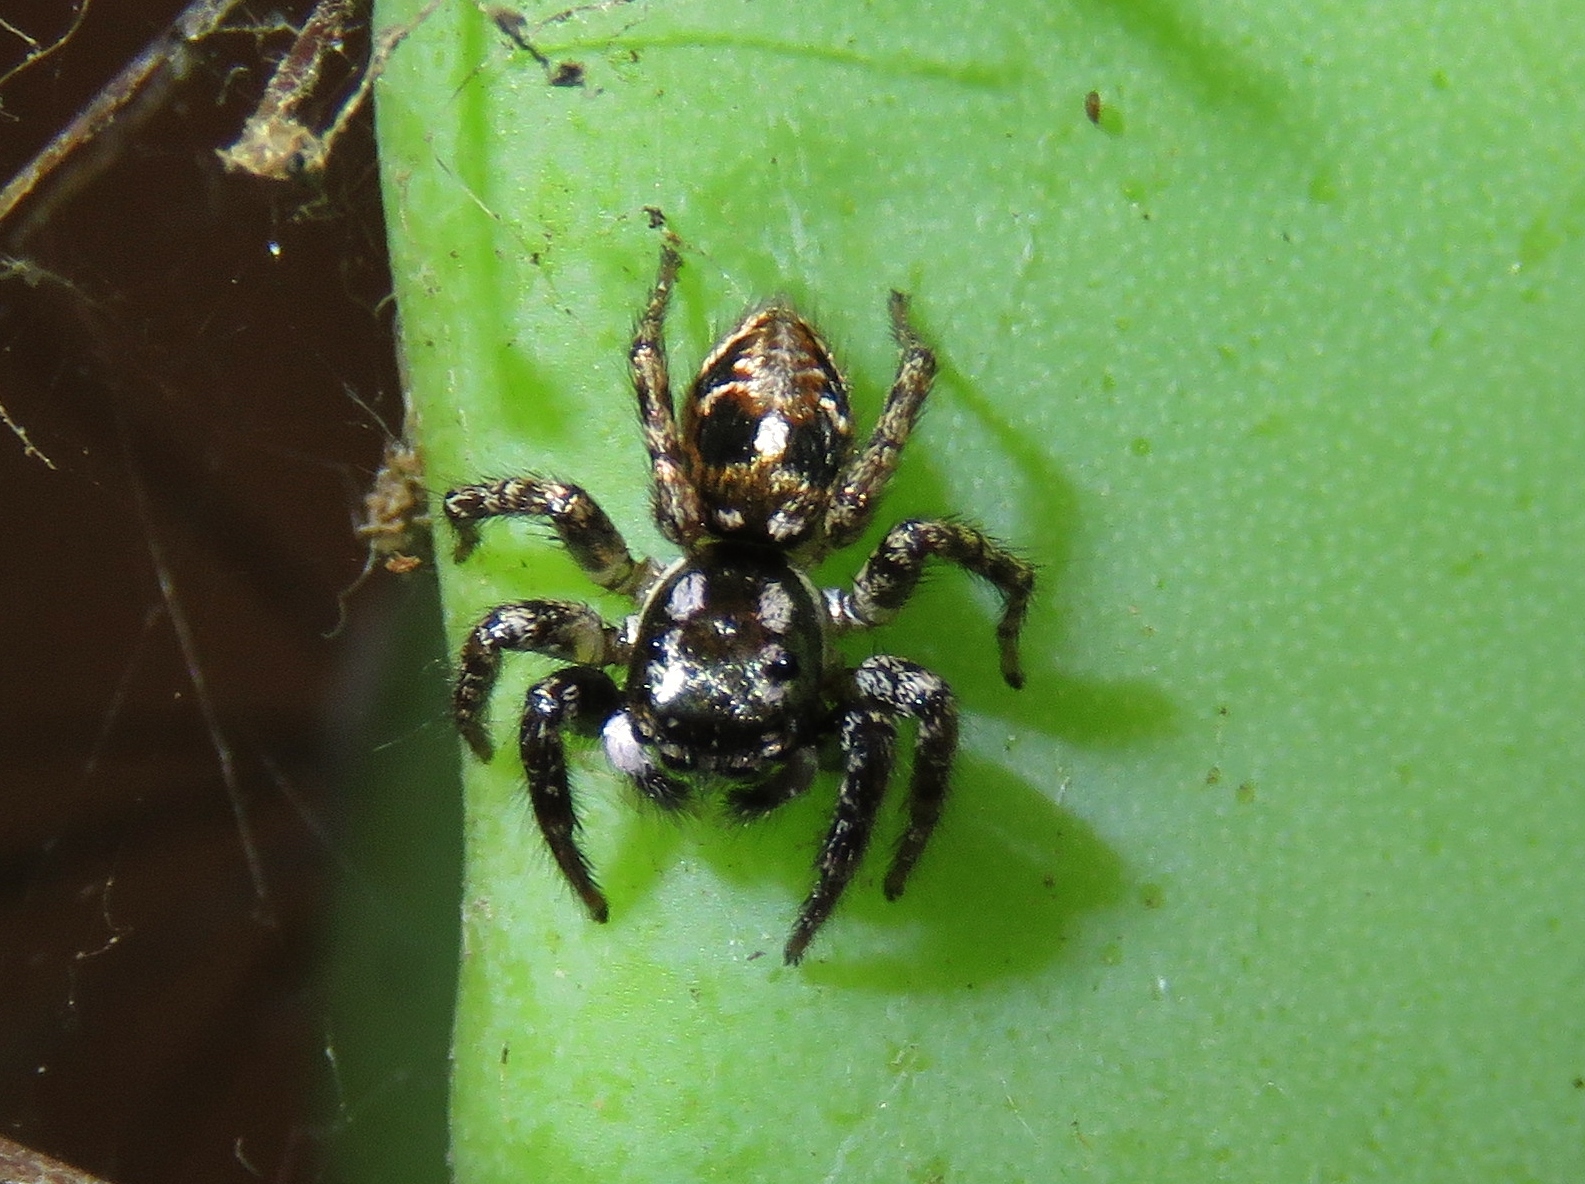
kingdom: Animalia
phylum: Arthropoda
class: Arachnida
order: Araneae
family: Salticidae
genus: Anasaitis
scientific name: Anasaitis canosa
